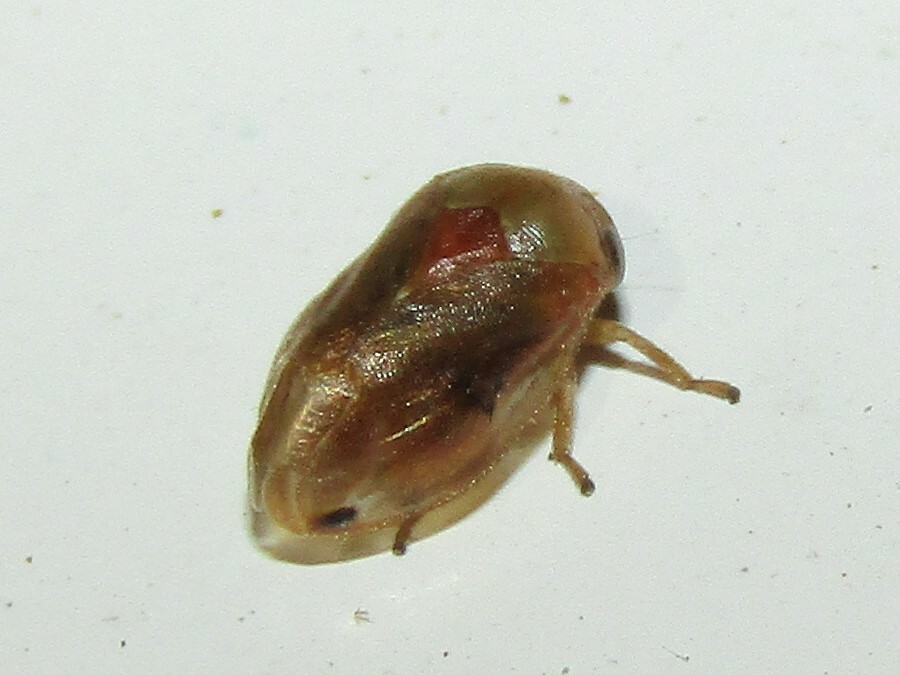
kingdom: Animalia
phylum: Arthropoda
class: Insecta
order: Hemiptera
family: Clastopteridae
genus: Clastoptera
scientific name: Clastoptera testacea
